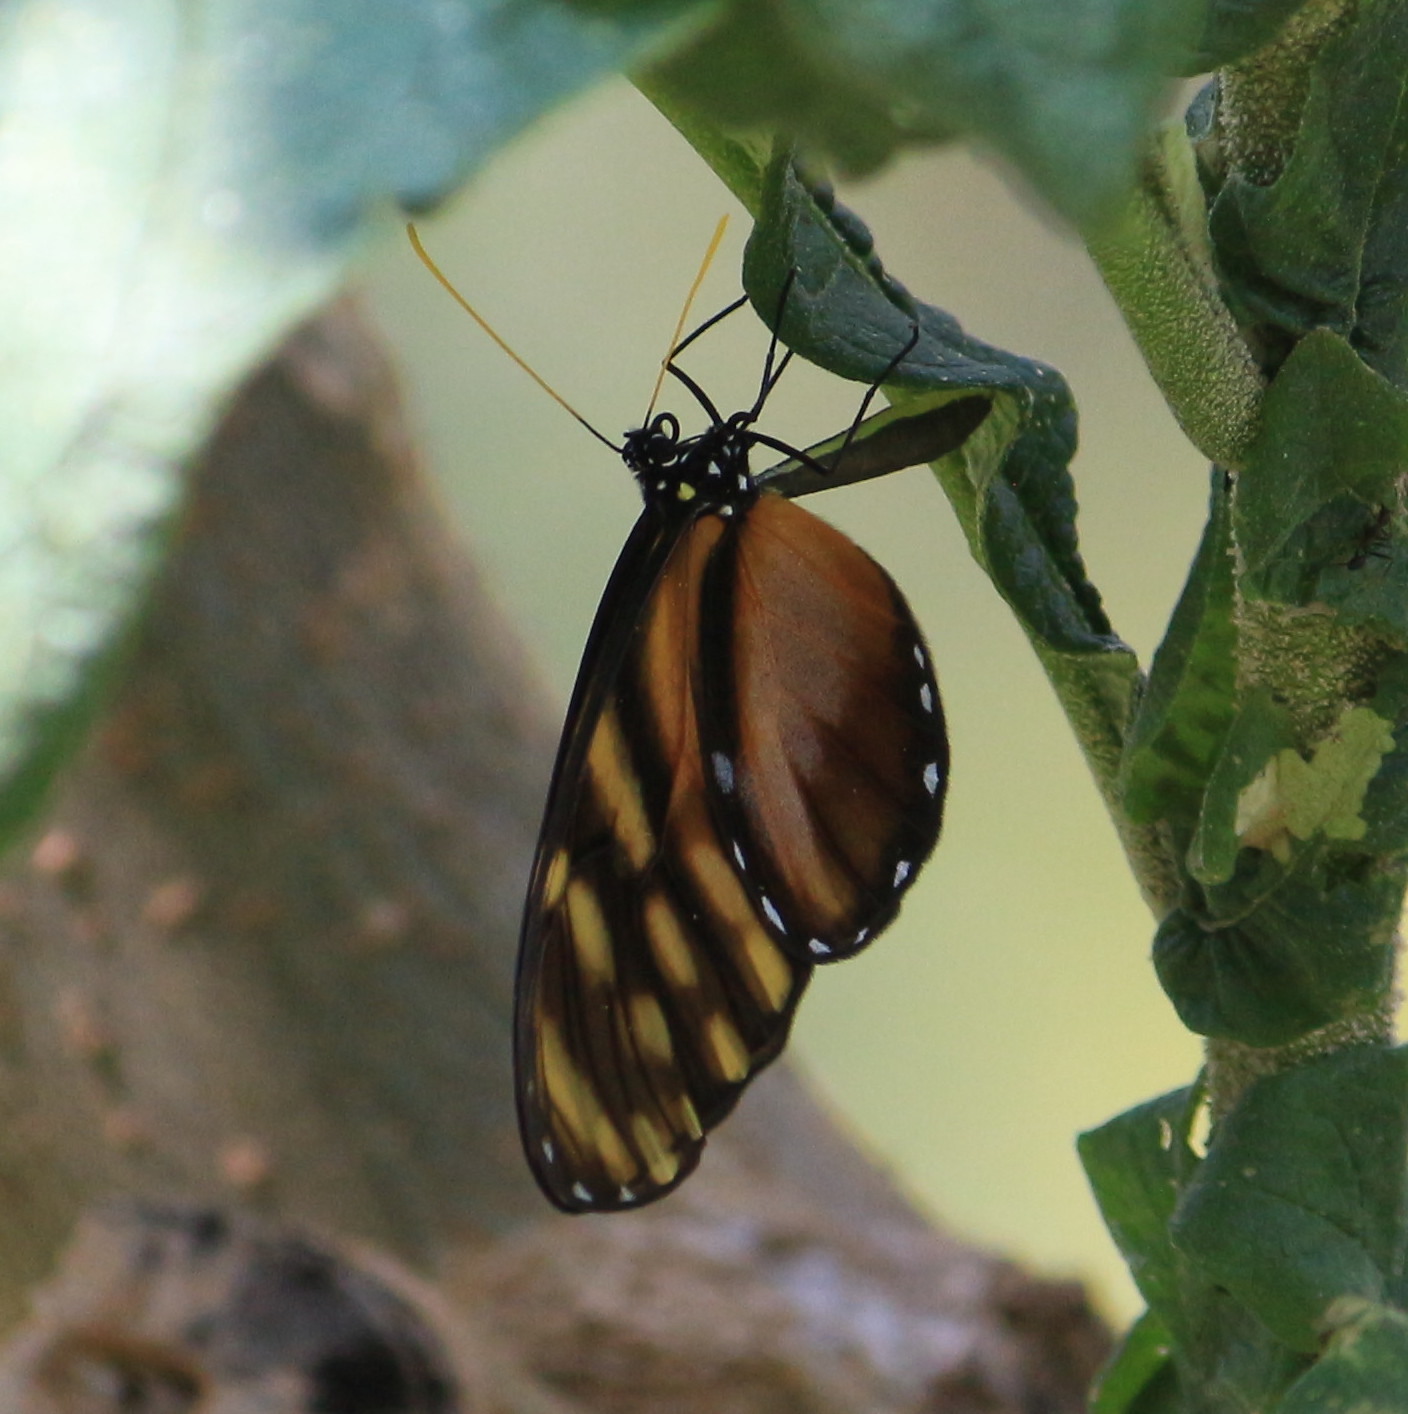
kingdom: Animalia
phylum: Arthropoda
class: Insecta
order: Lepidoptera
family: Nymphalidae
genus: Dircenna
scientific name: Dircenna klugii
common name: Klug’s clearwing
